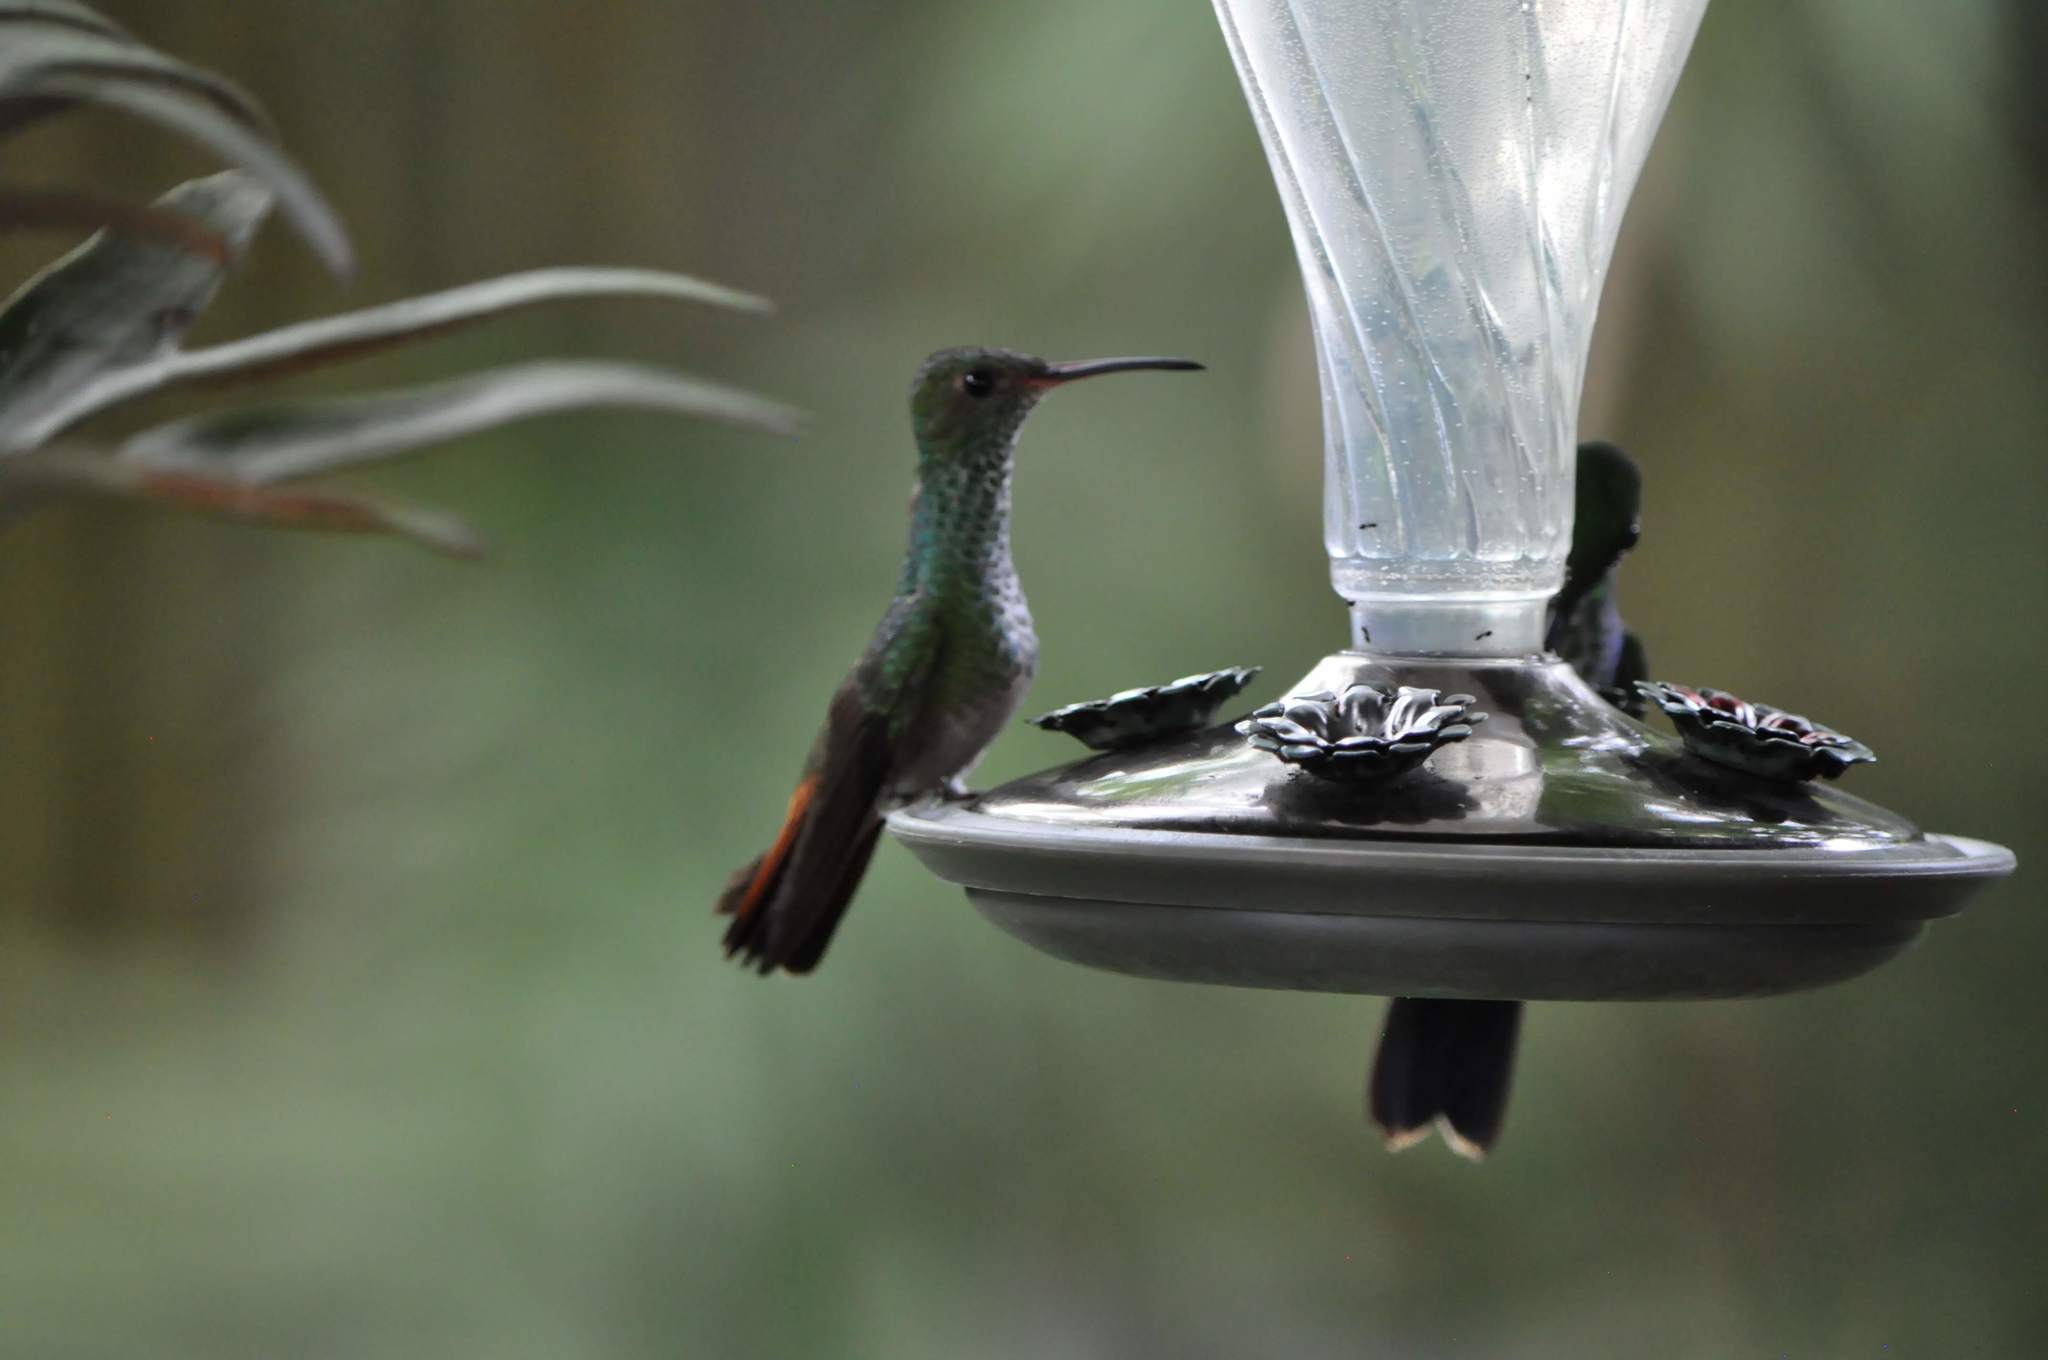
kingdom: Animalia
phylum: Chordata
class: Aves
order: Apodiformes
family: Trochilidae
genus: Amazilia
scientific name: Amazilia tzacatl
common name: Rufous-tailed hummingbird
